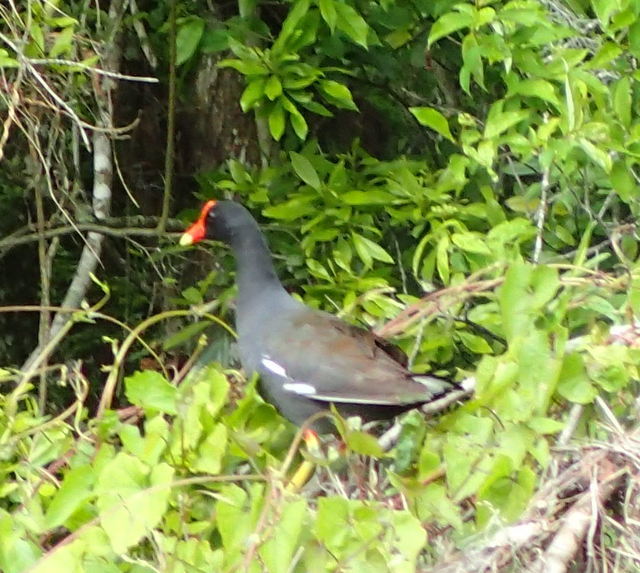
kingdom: Animalia
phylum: Chordata
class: Aves
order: Gruiformes
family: Rallidae
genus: Gallinula
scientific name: Gallinula chloropus
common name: Common moorhen
